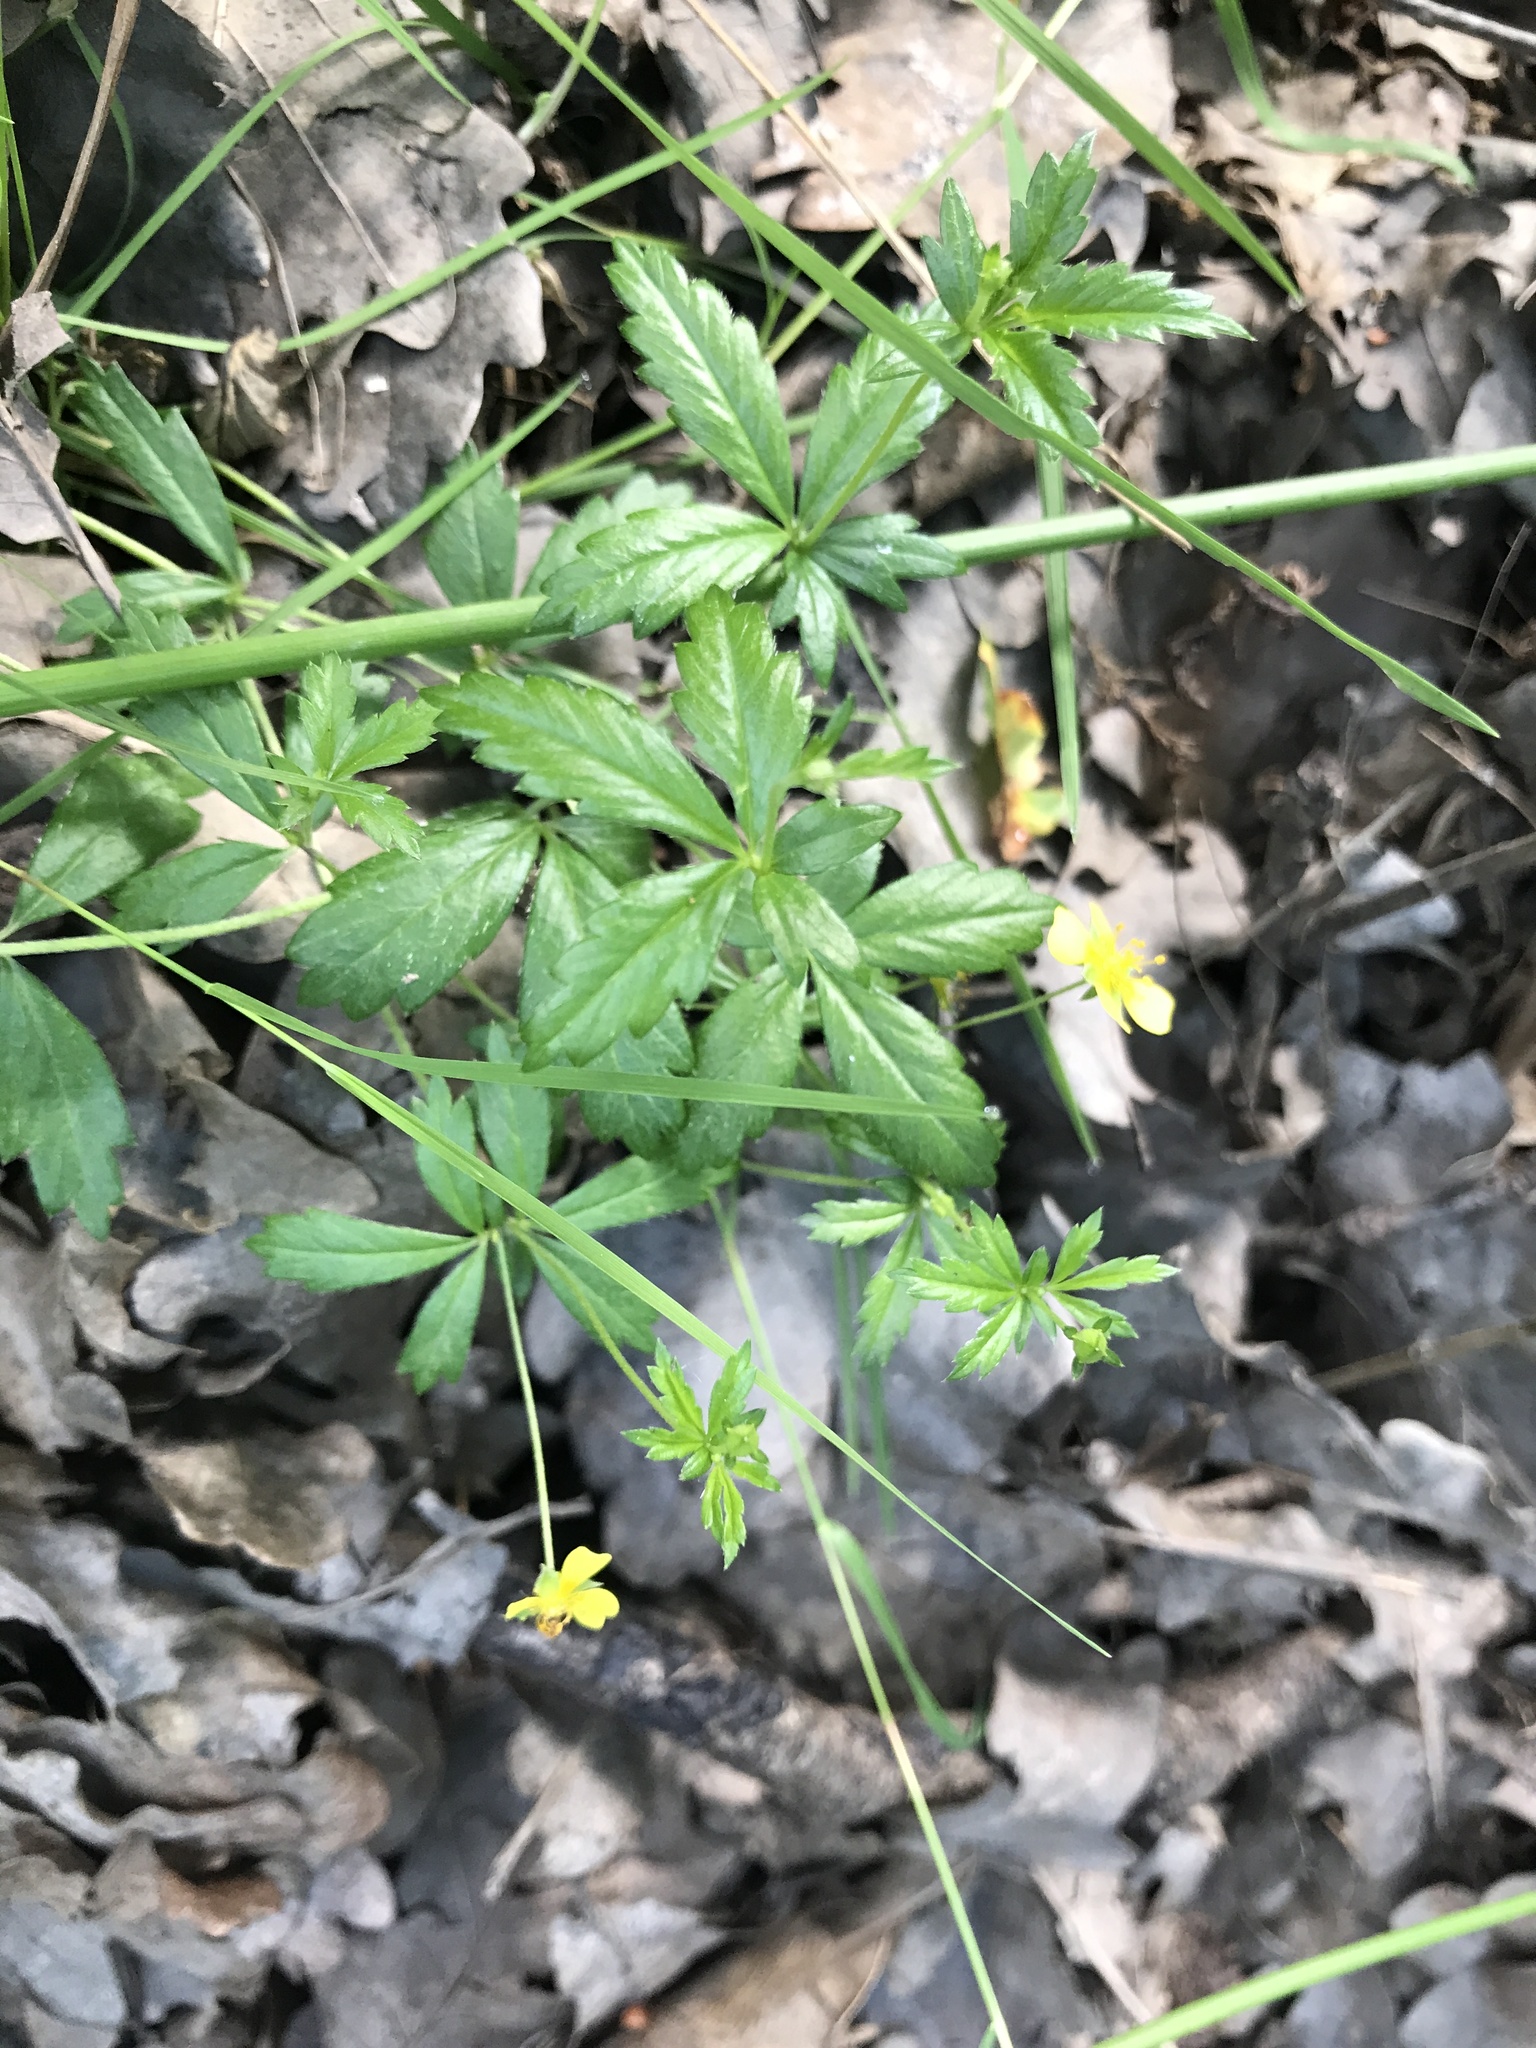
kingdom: Plantae
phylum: Tracheophyta
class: Magnoliopsida
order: Rosales
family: Rosaceae
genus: Potentilla
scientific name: Potentilla erecta
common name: Tormentil
